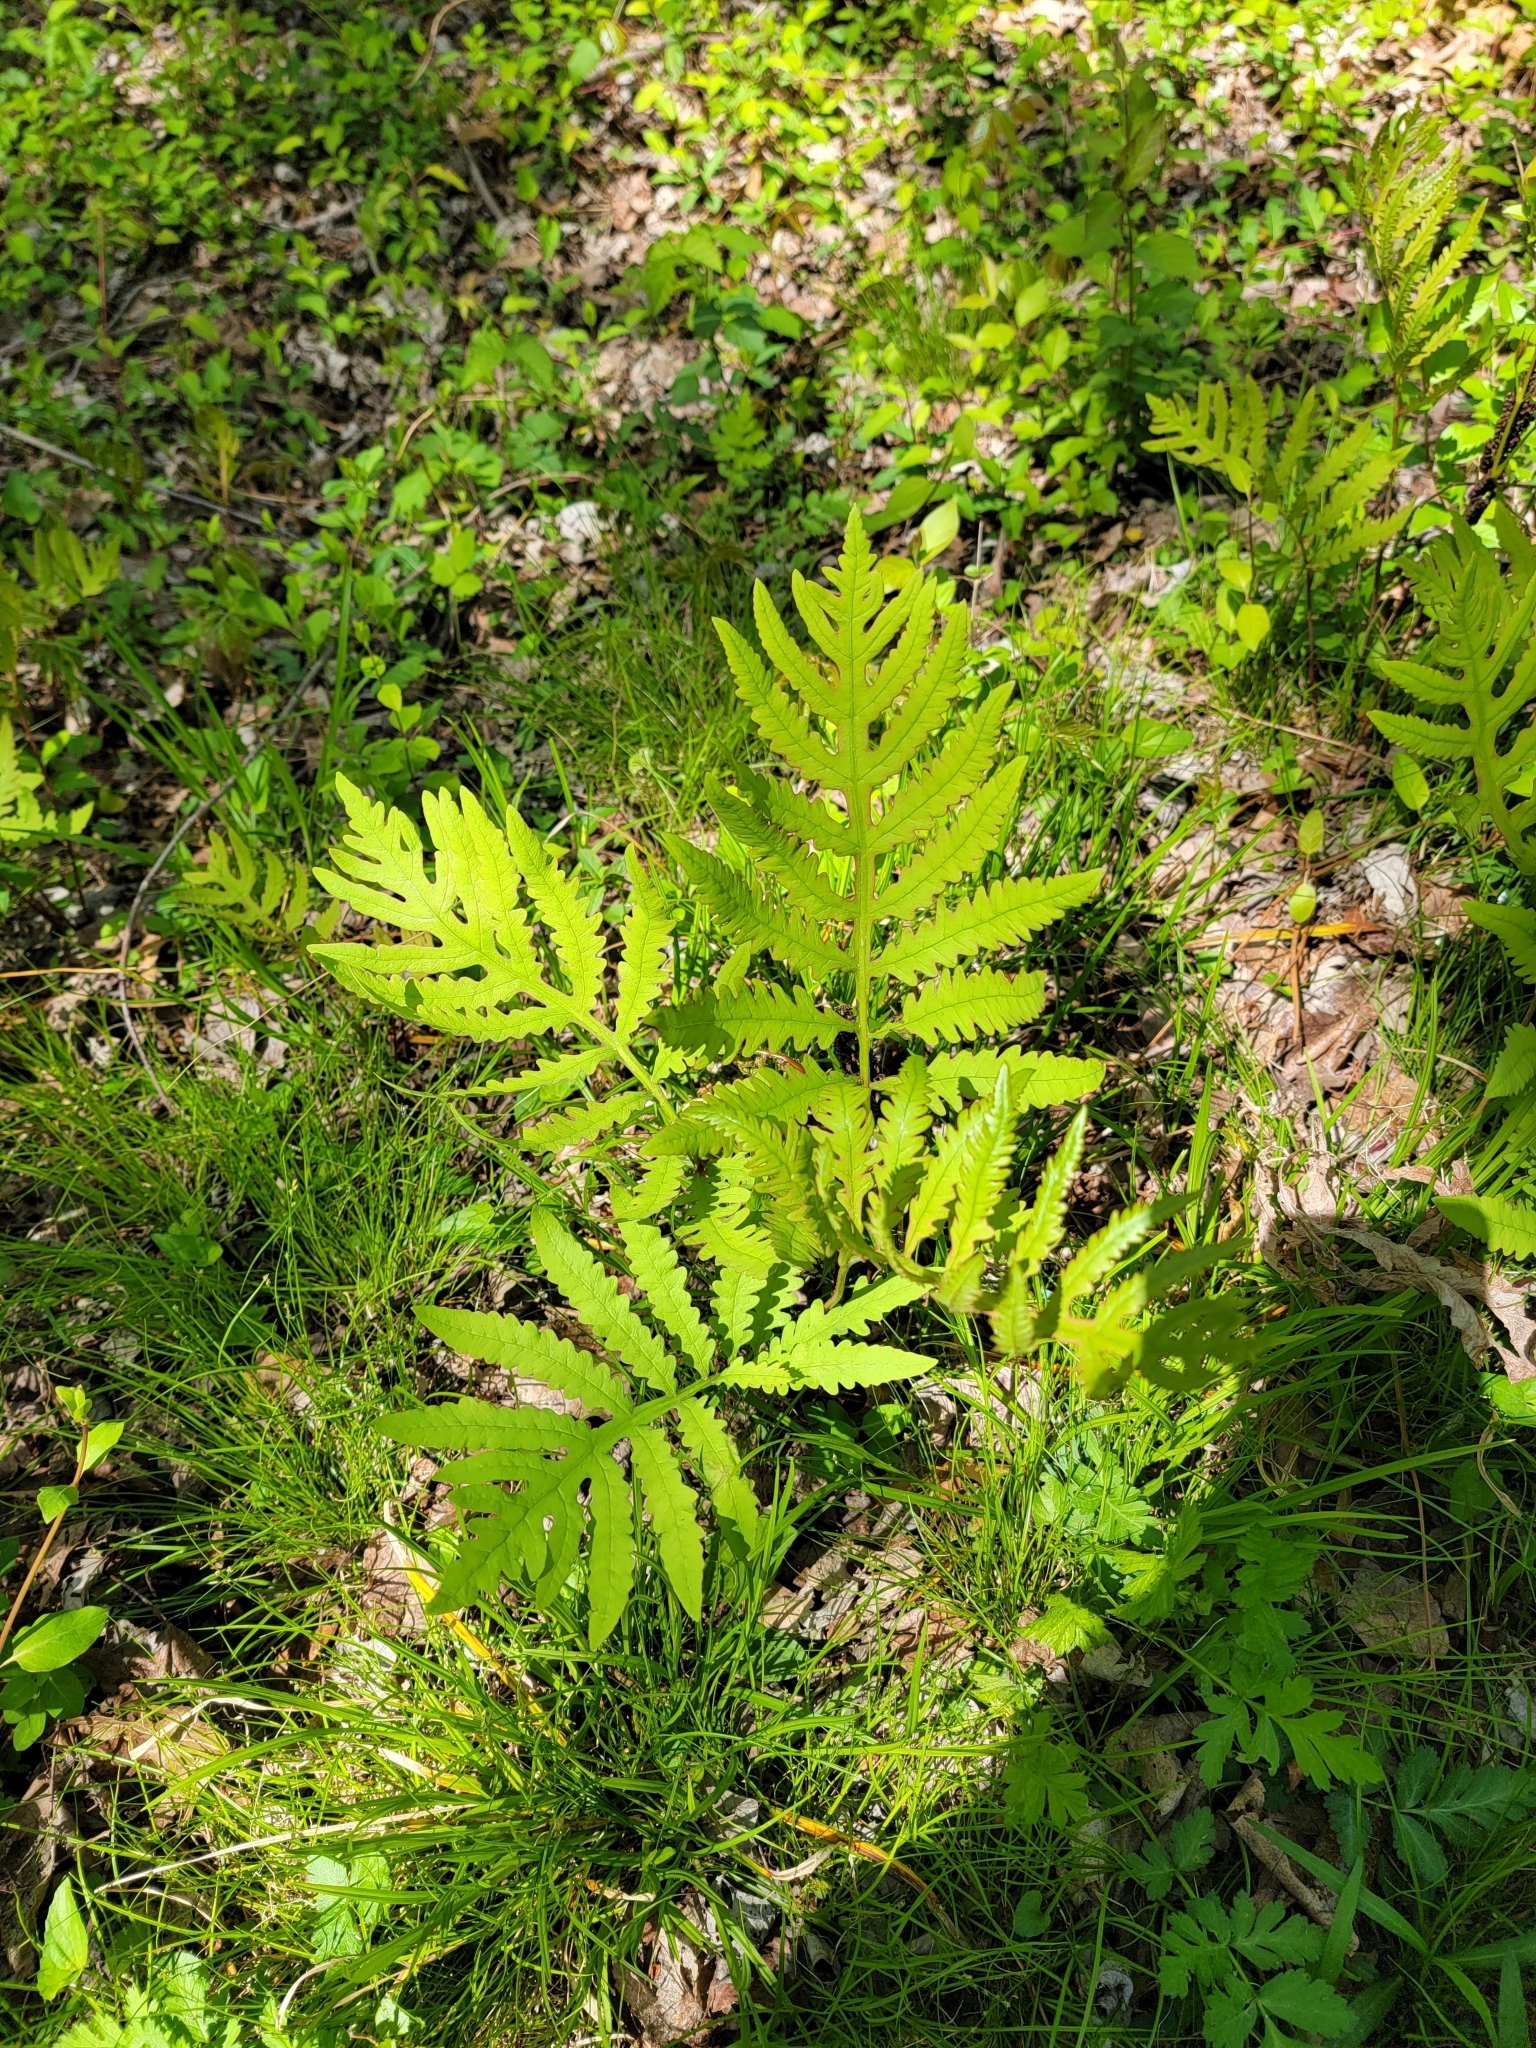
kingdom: Plantae
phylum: Tracheophyta
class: Polypodiopsida
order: Polypodiales
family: Onocleaceae
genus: Onoclea
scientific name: Onoclea sensibilis
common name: Sensitive fern
